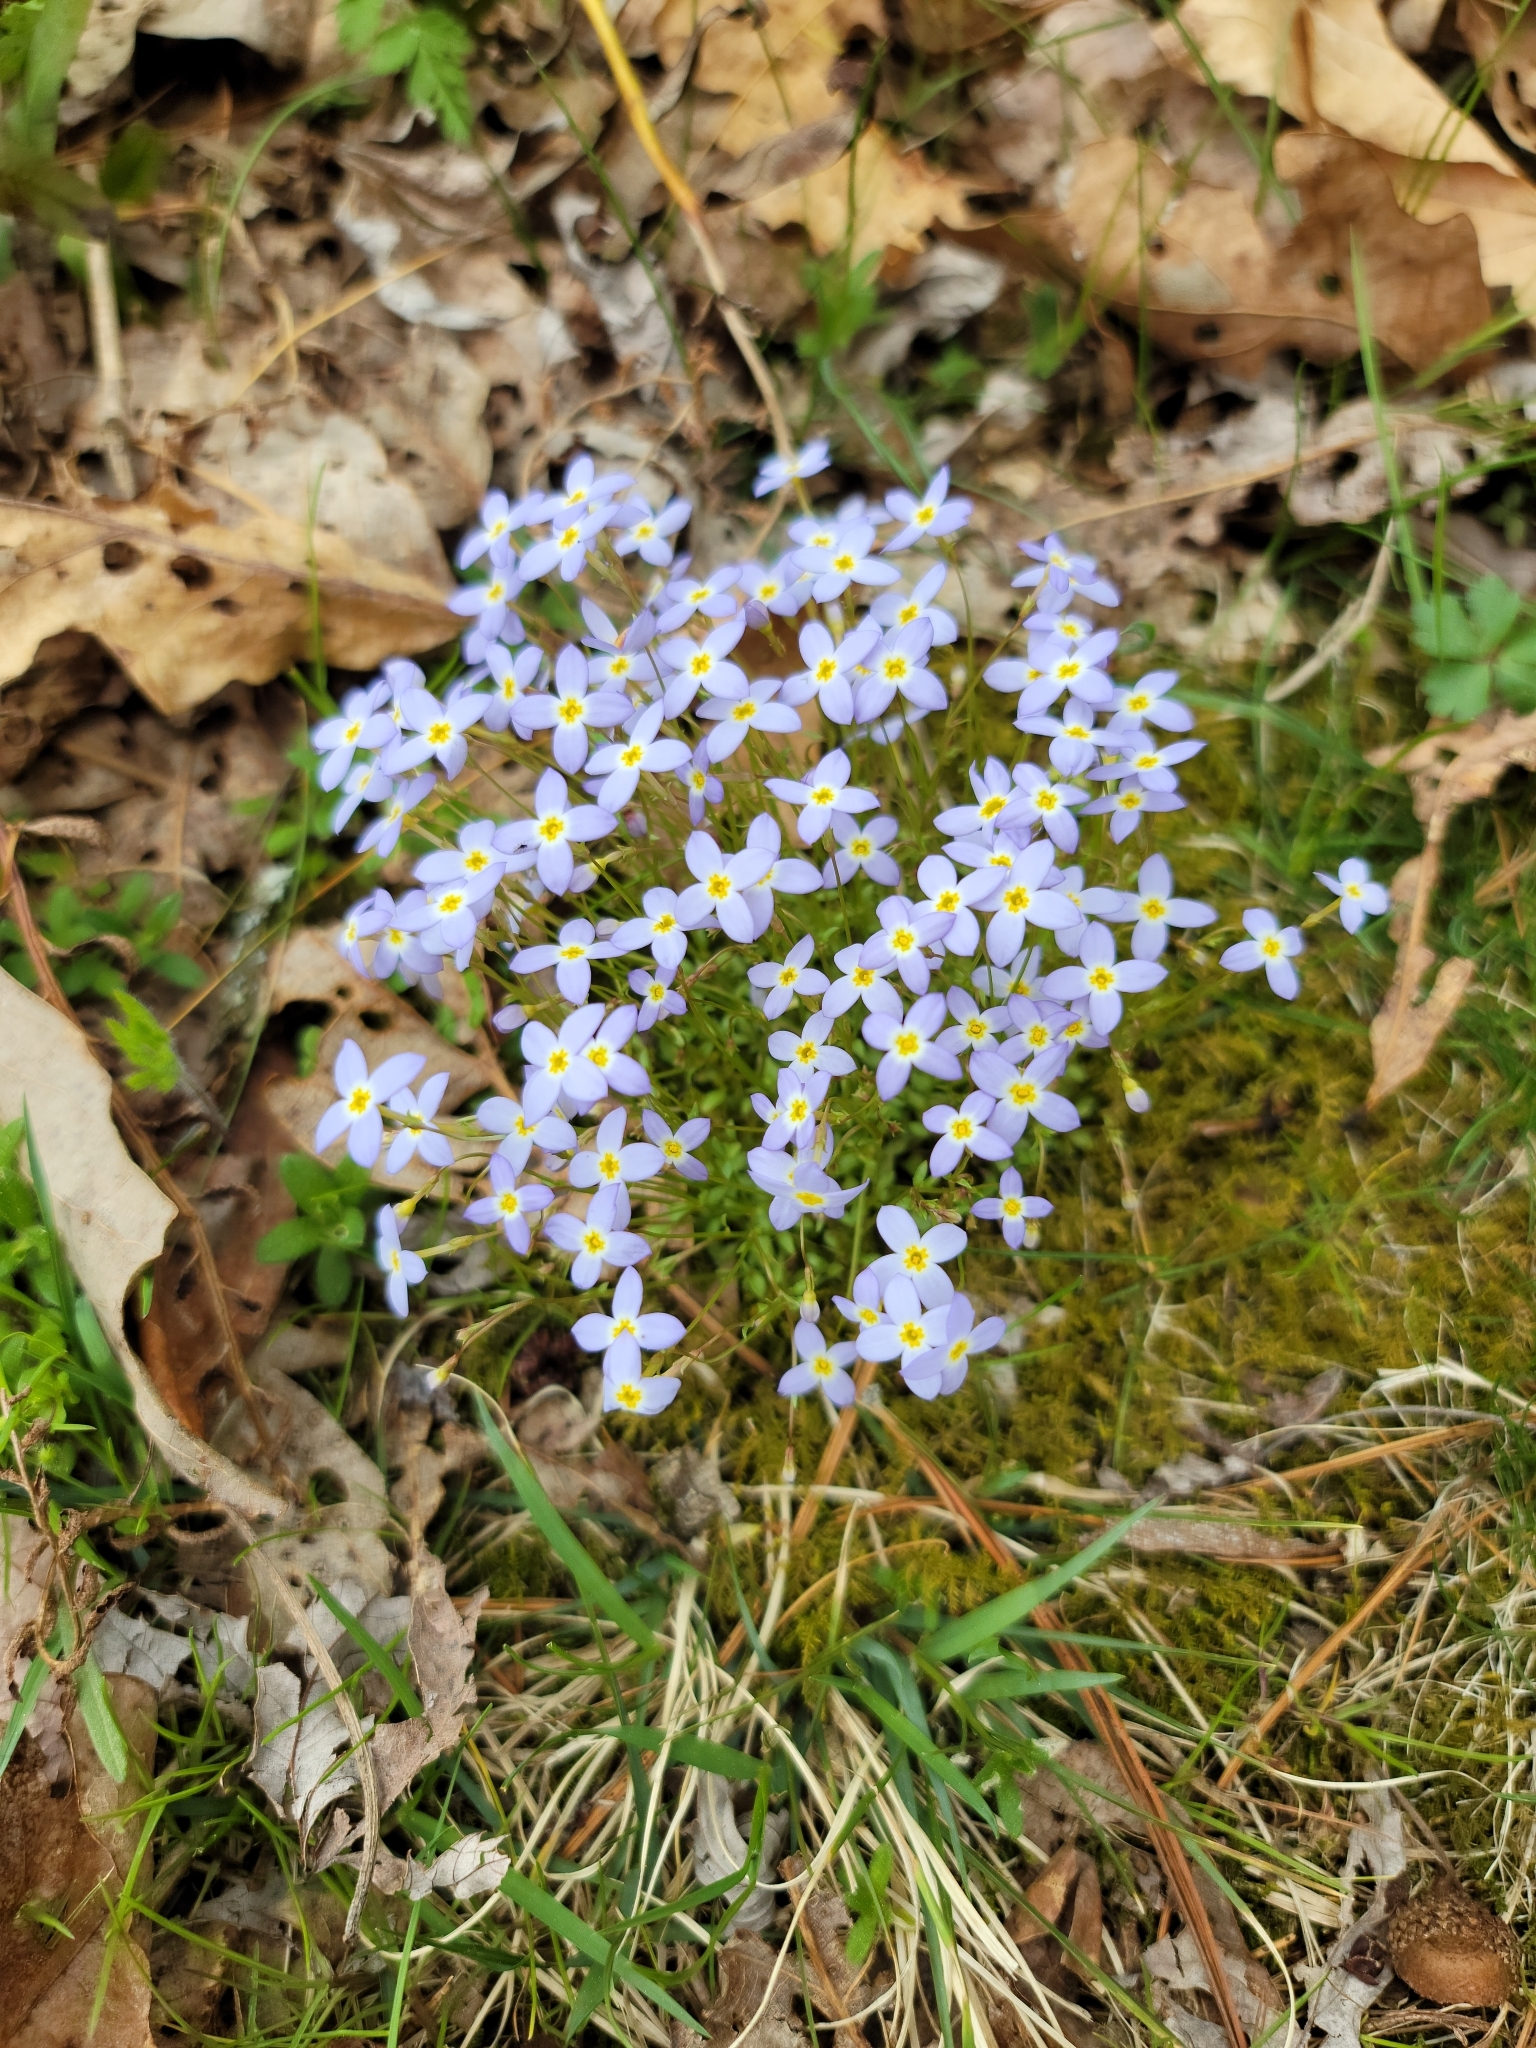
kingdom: Plantae
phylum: Tracheophyta
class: Magnoliopsida
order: Gentianales
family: Rubiaceae
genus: Houstonia
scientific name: Houstonia caerulea
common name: Bluets
